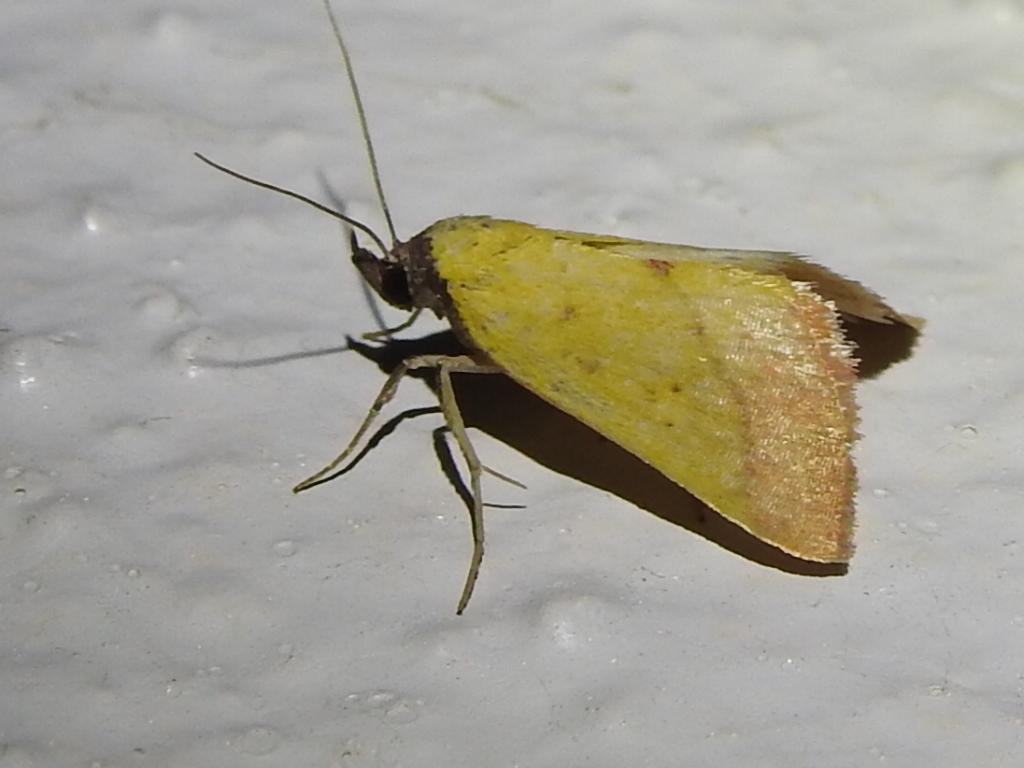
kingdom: Animalia
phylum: Arthropoda
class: Insecta
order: Lepidoptera
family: Erebidae
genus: Phytometra
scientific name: Phytometra orgiae
